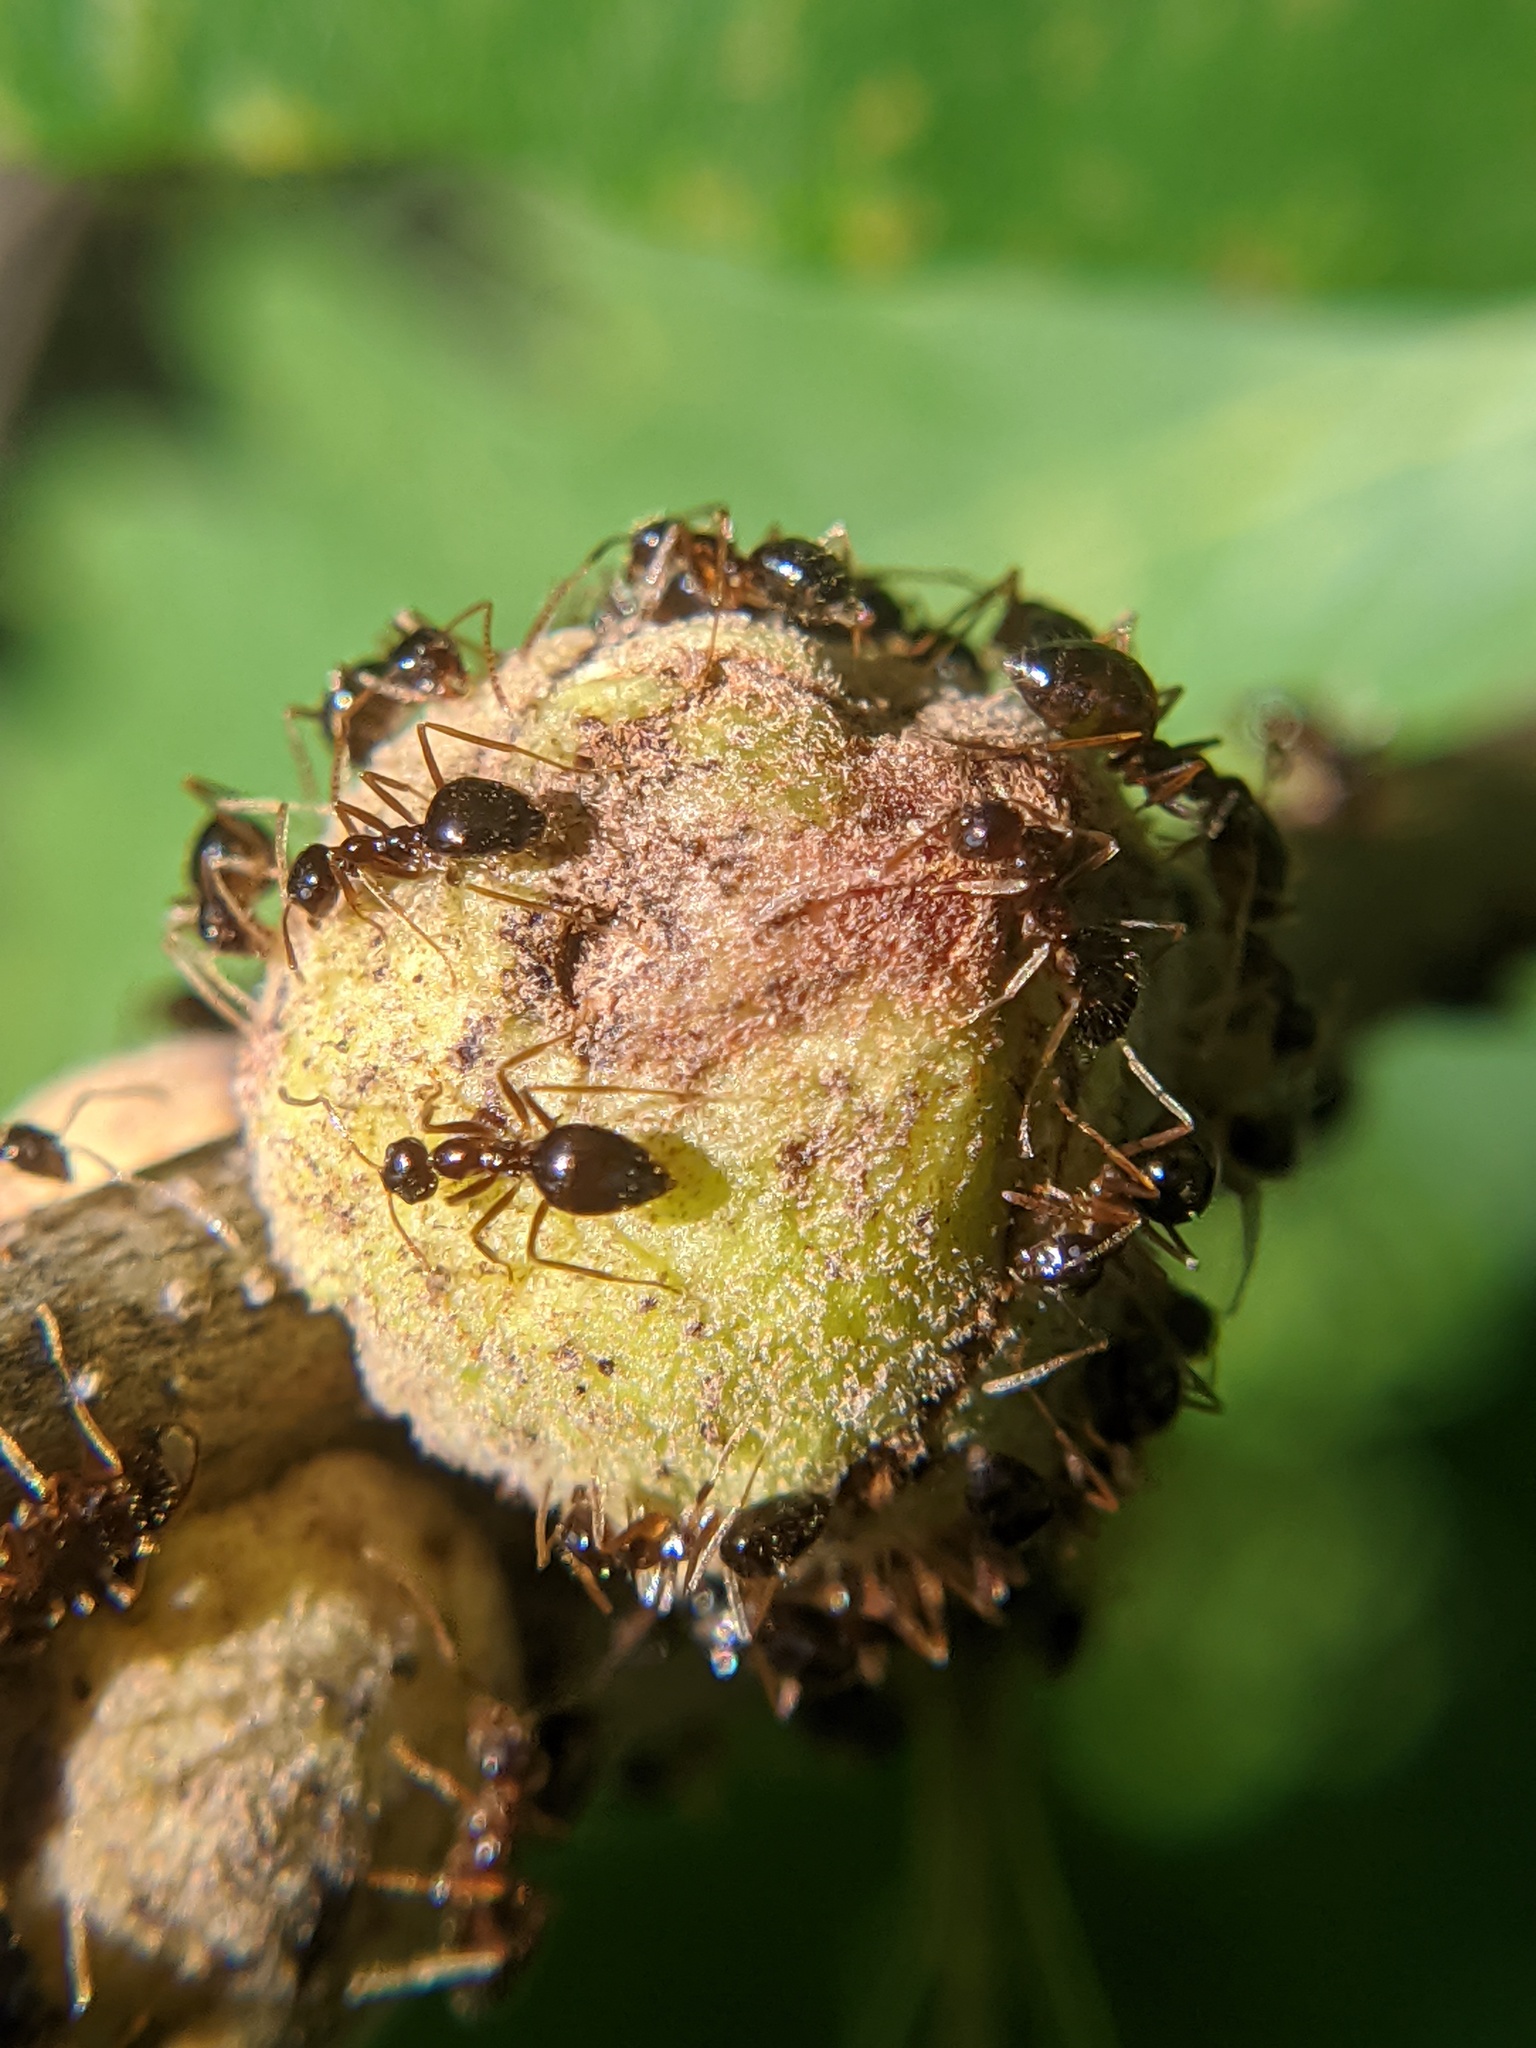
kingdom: Animalia
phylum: Arthropoda
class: Insecta
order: Hymenoptera
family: Cynipidae
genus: Disholcaspis
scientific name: Disholcaspis
